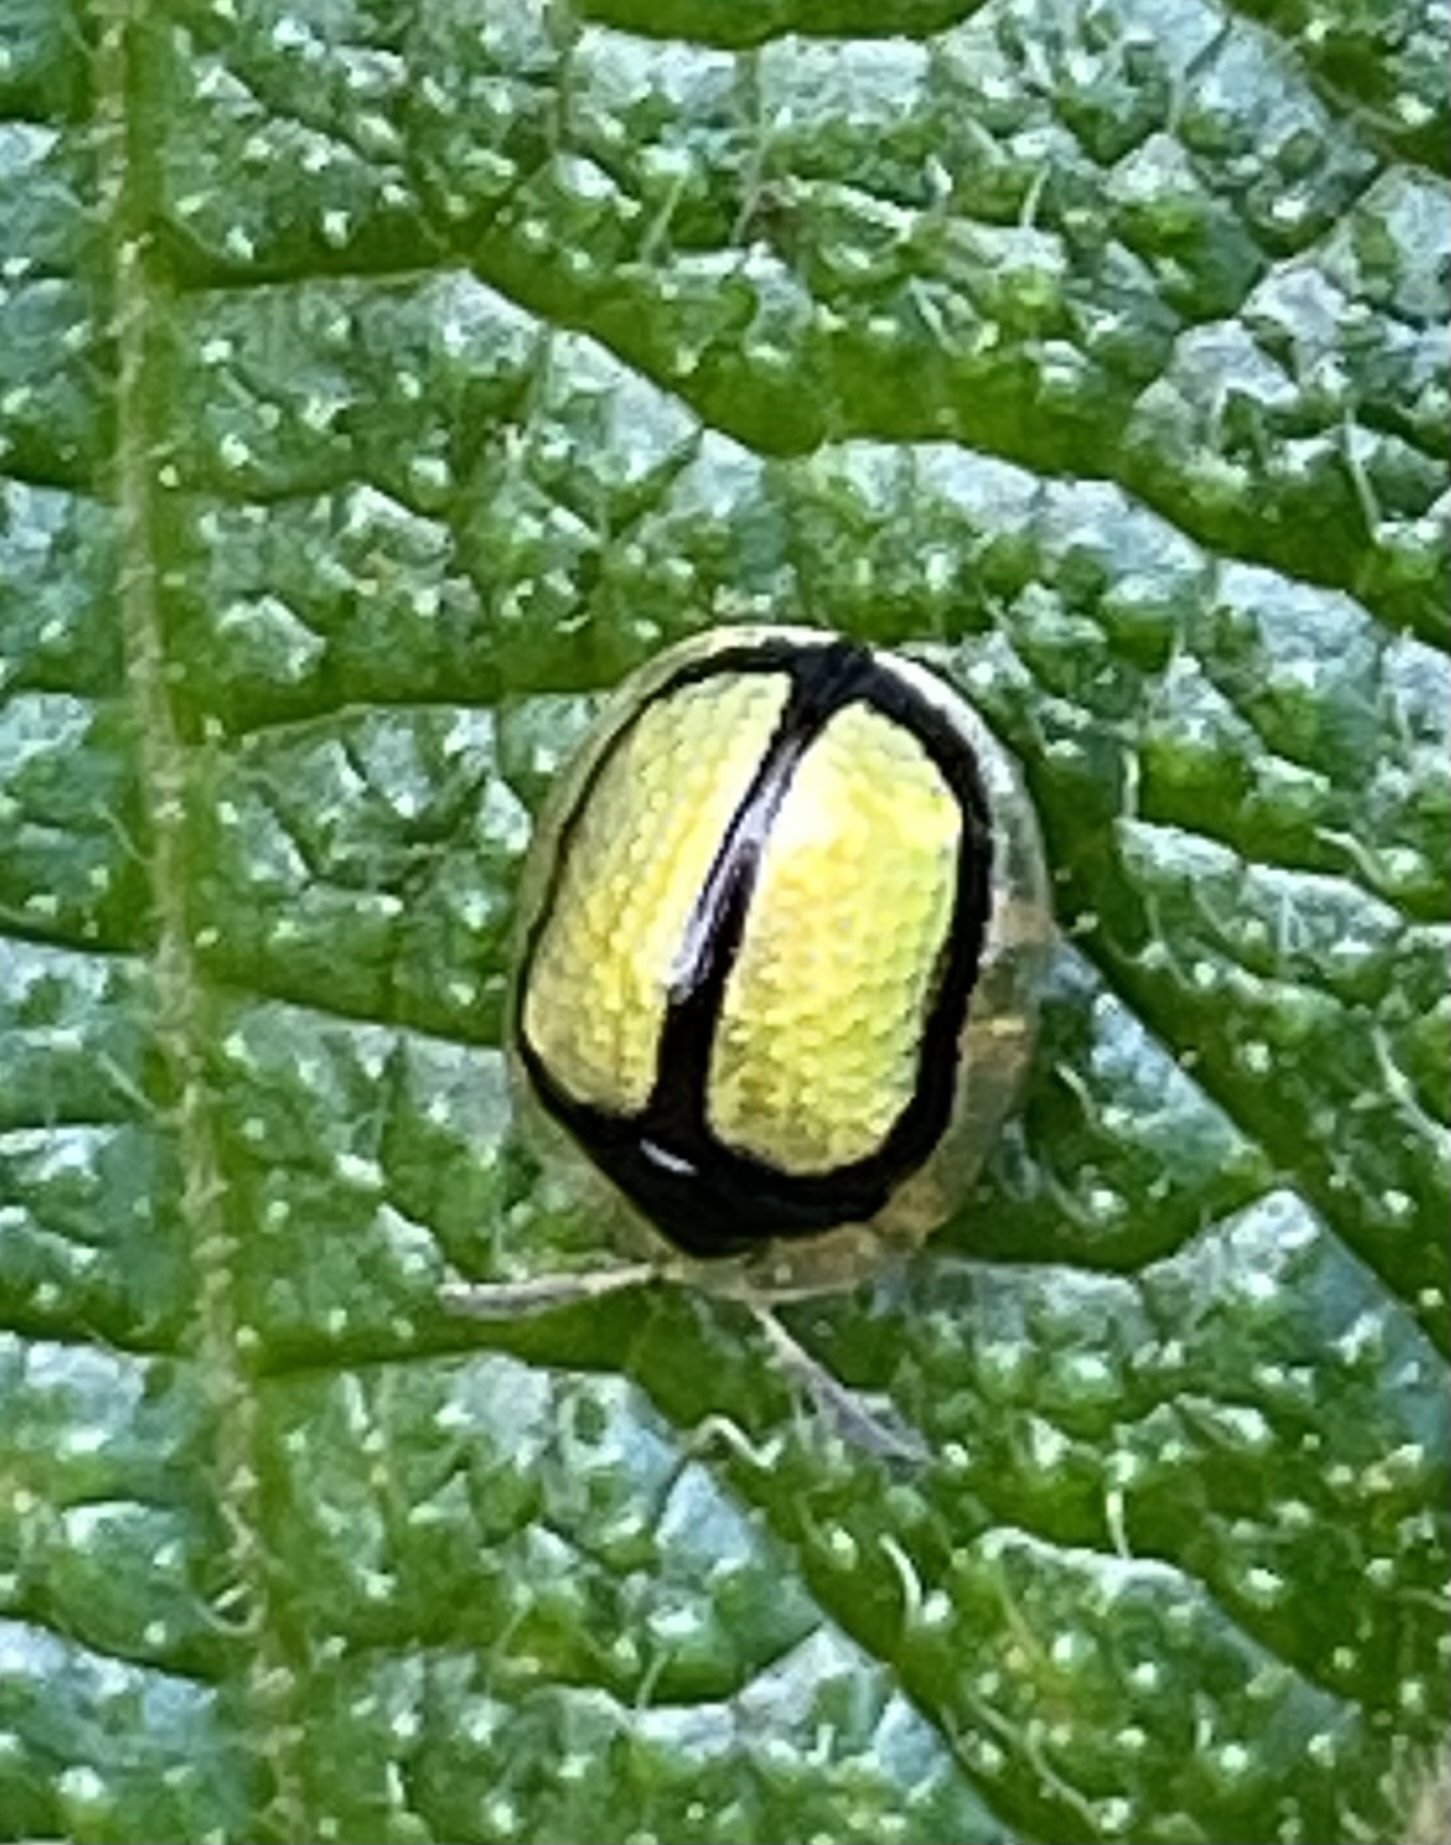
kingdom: Animalia
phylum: Arthropoda
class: Insecta
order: Coleoptera
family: Chrysomelidae
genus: Charidotis
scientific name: Charidotis nigrocincta
